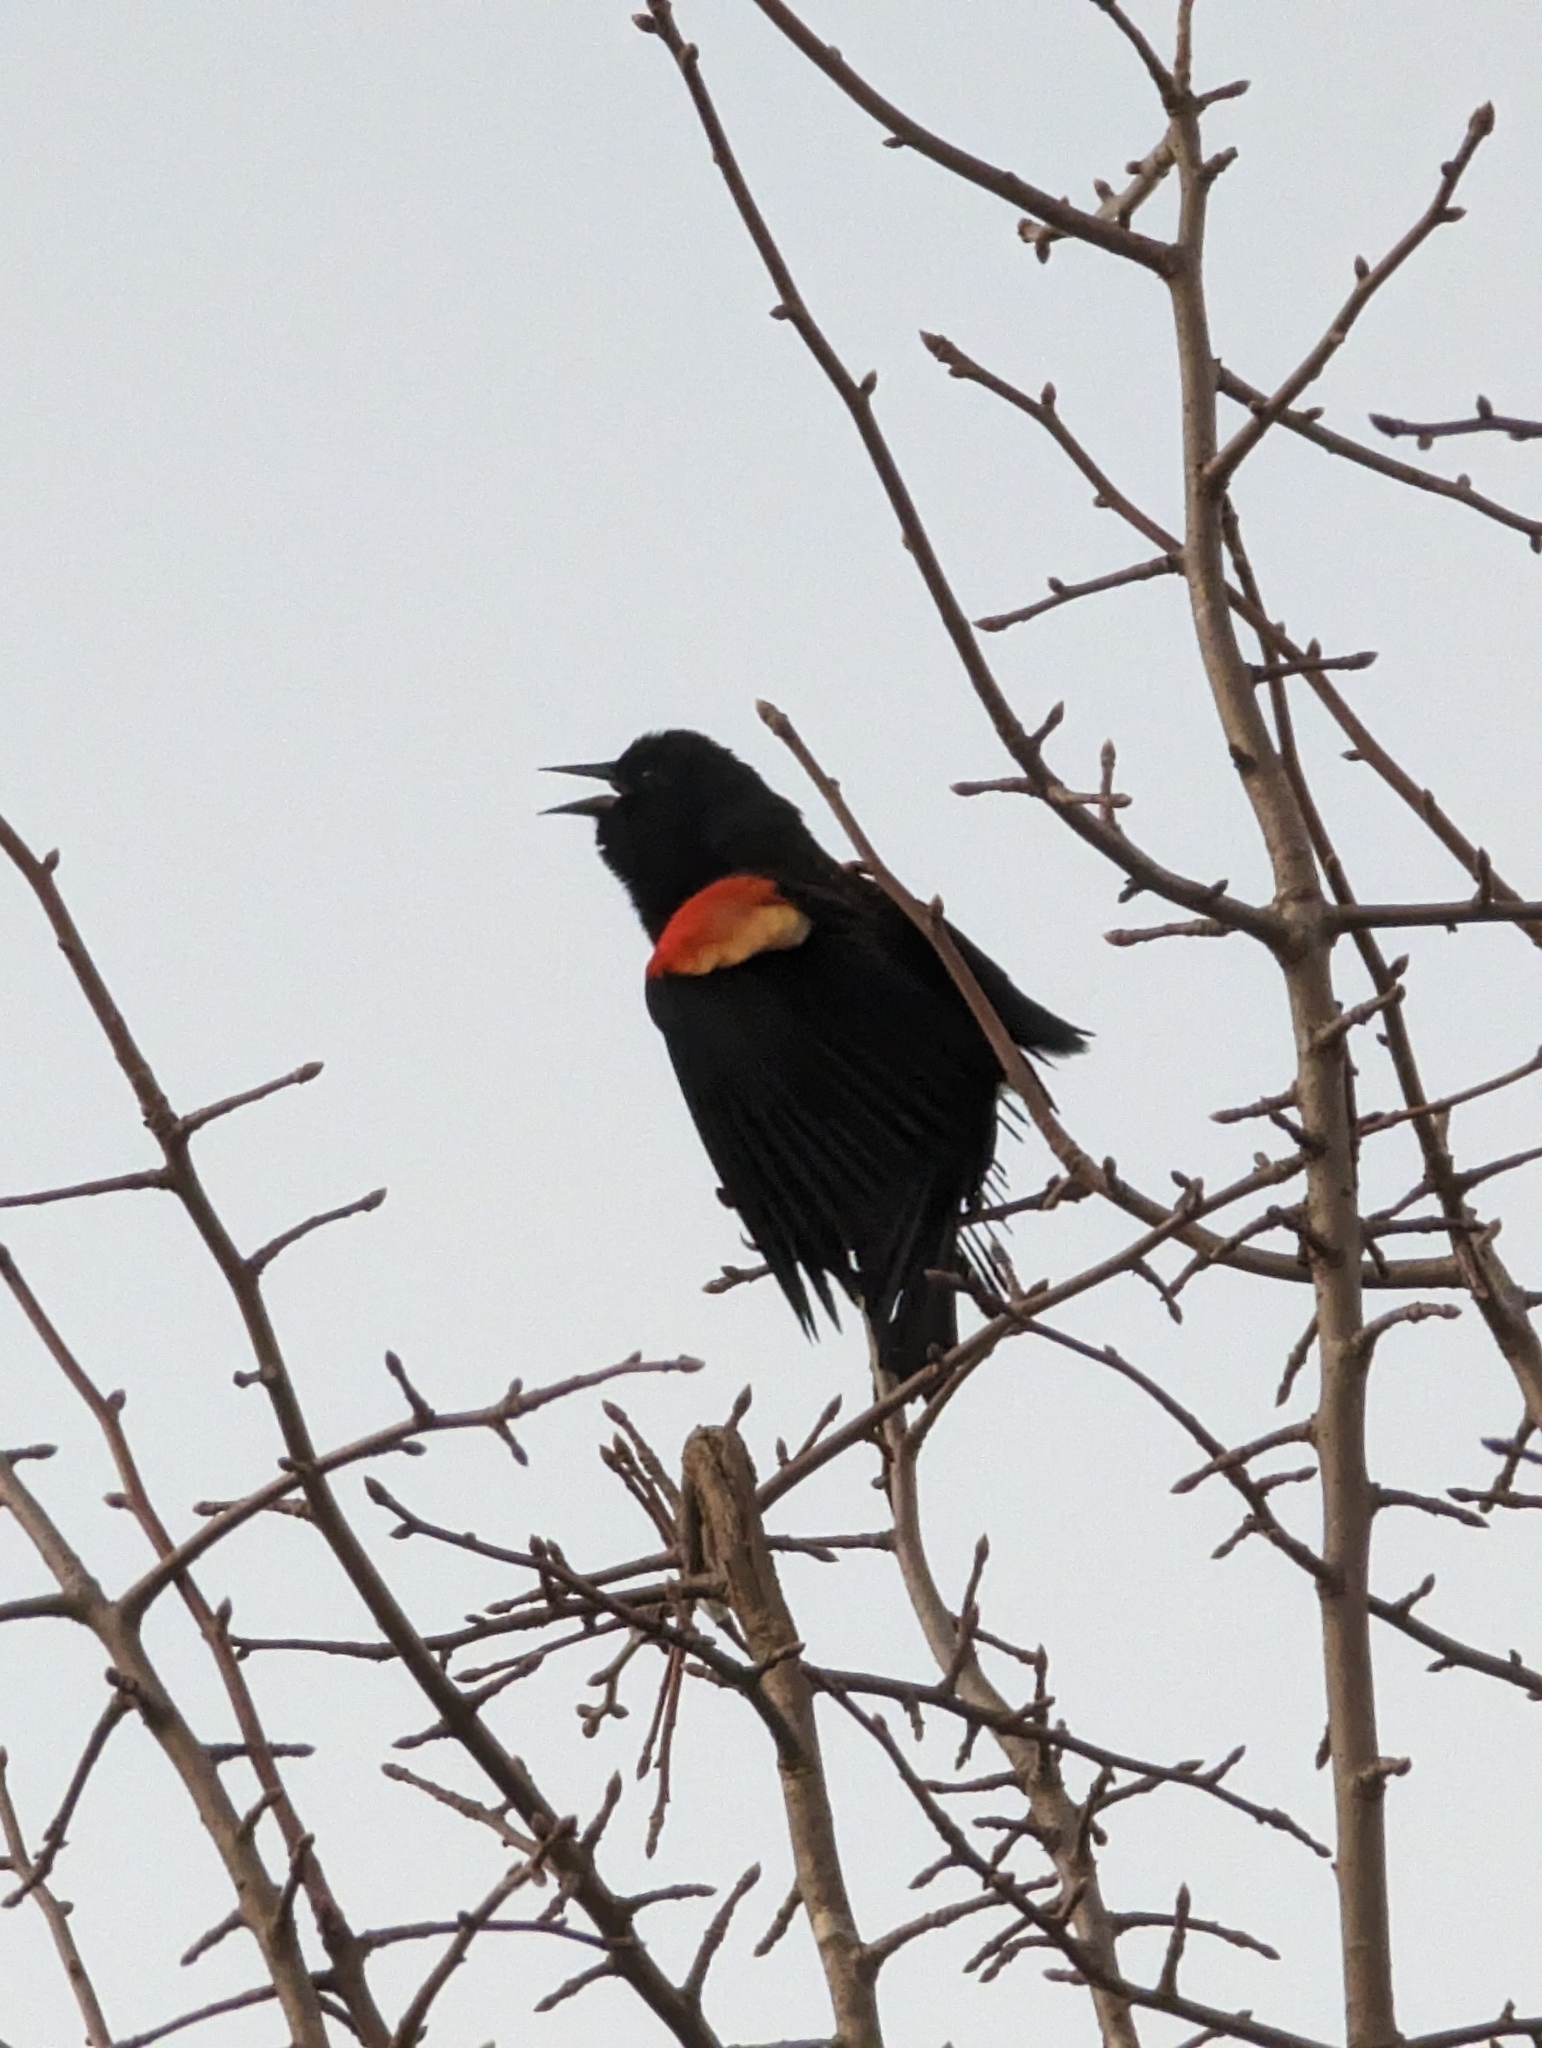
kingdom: Animalia
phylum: Chordata
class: Aves
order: Passeriformes
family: Icteridae
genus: Agelaius
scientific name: Agelaius phoeniceus
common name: Red-winged blackbird
